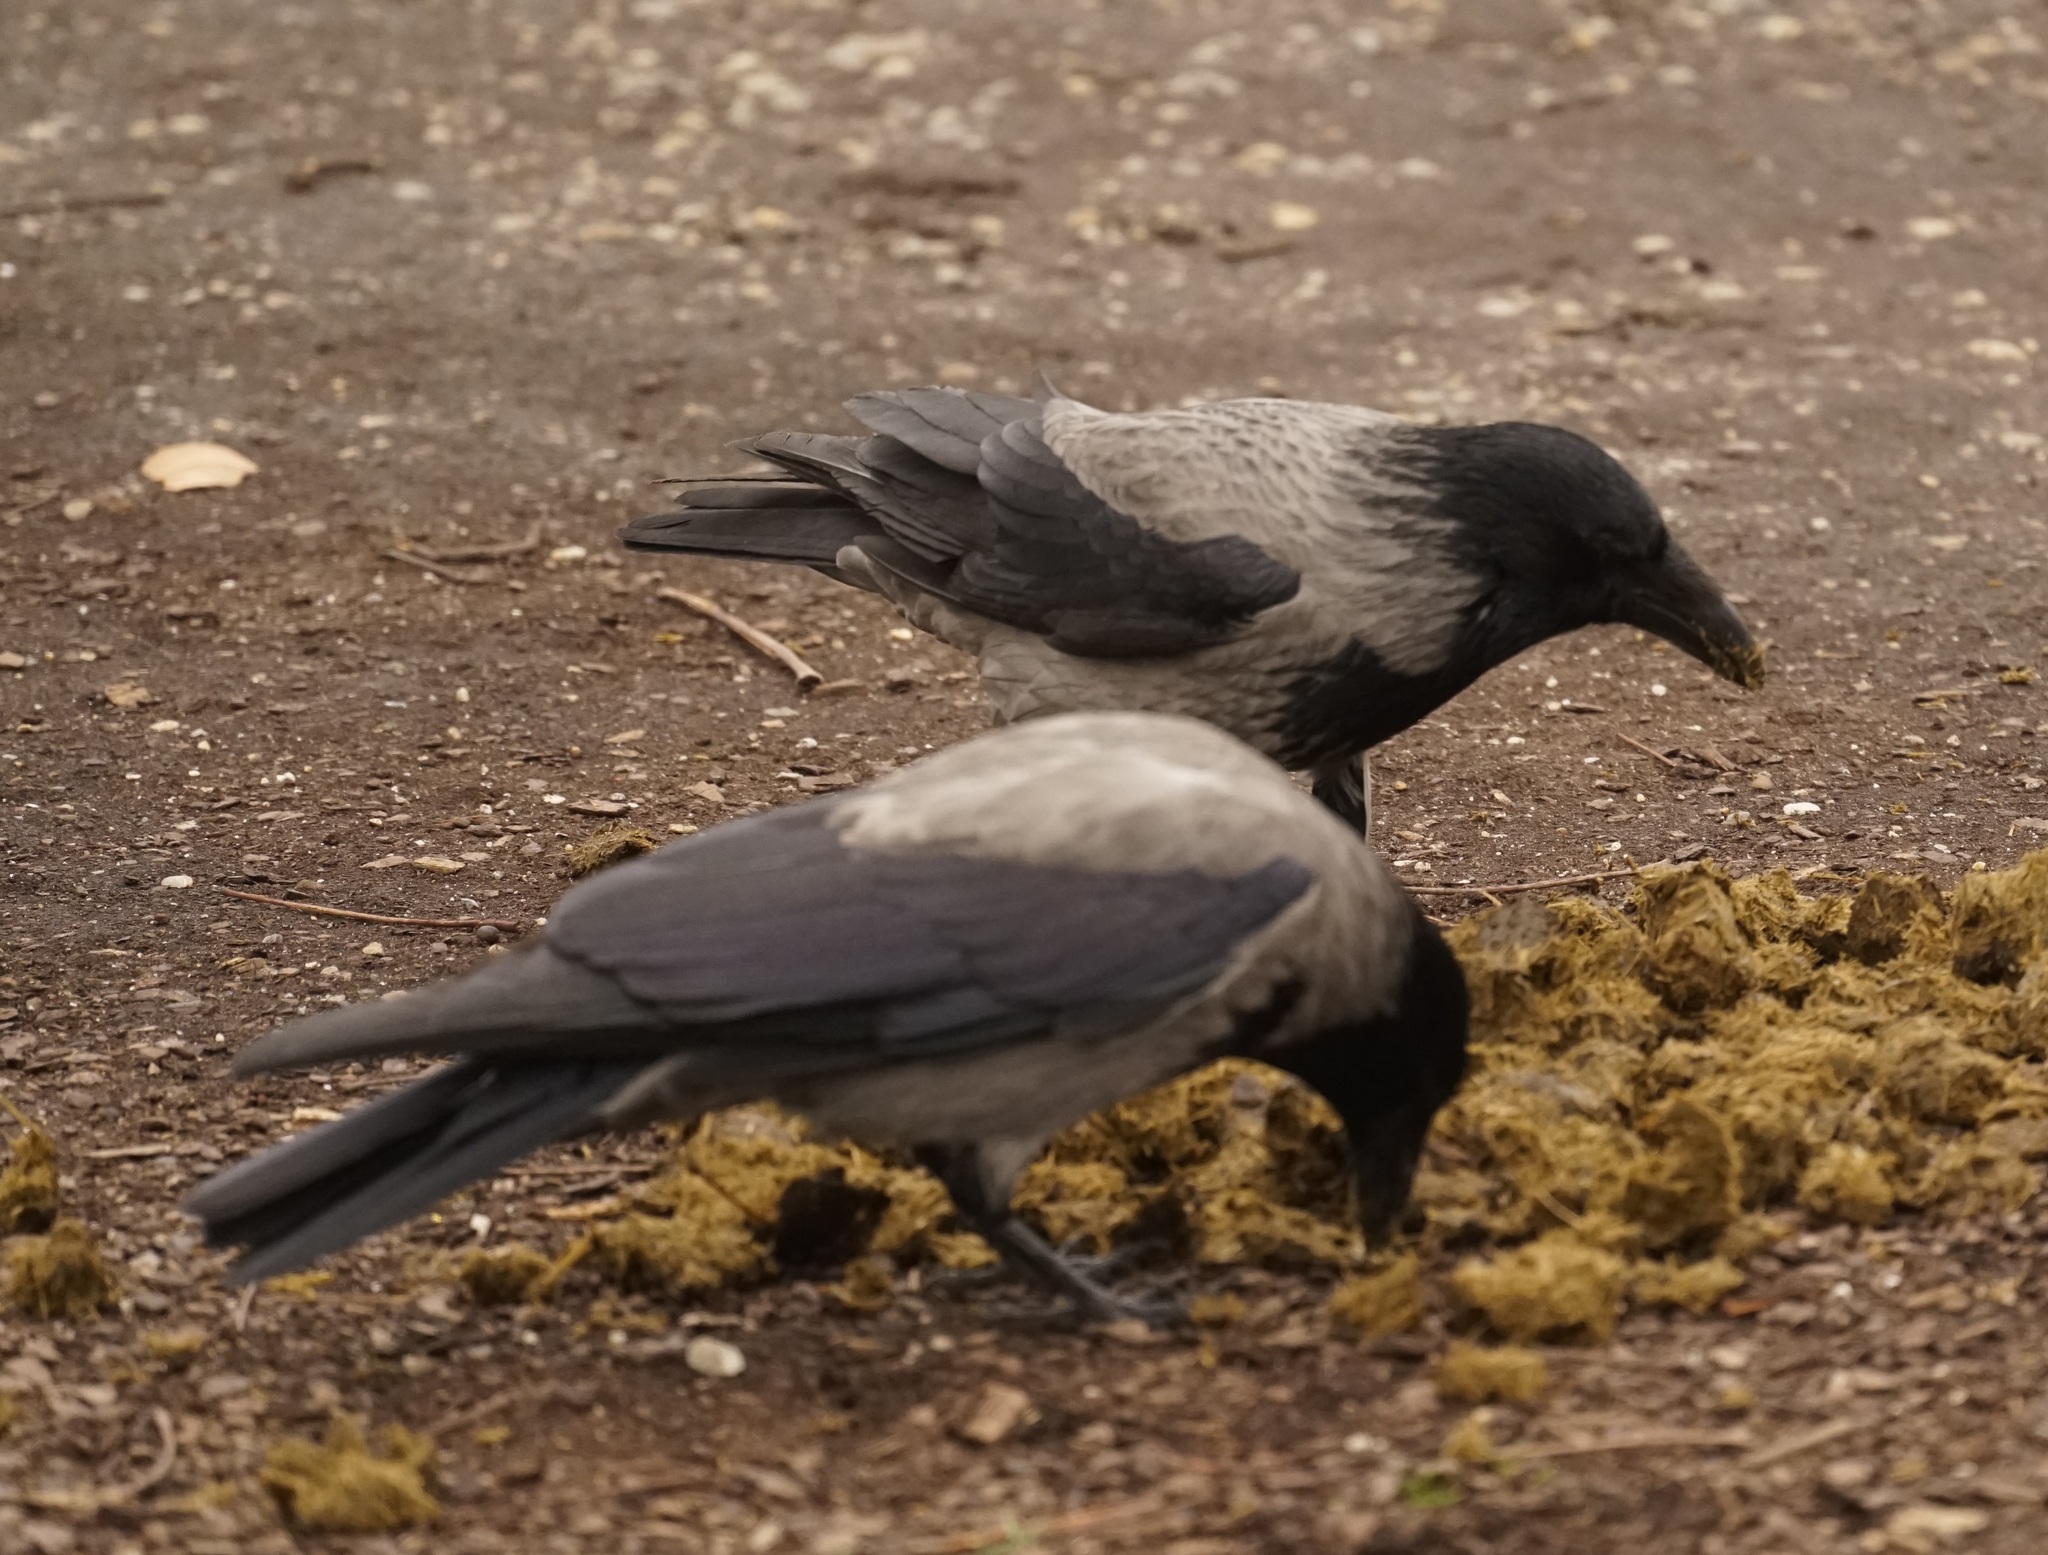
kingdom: Animalia
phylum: Chordata
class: Aves
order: Passeriformes
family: Corvidae
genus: Corvus
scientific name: Corvus cornix
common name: Hooded crow
